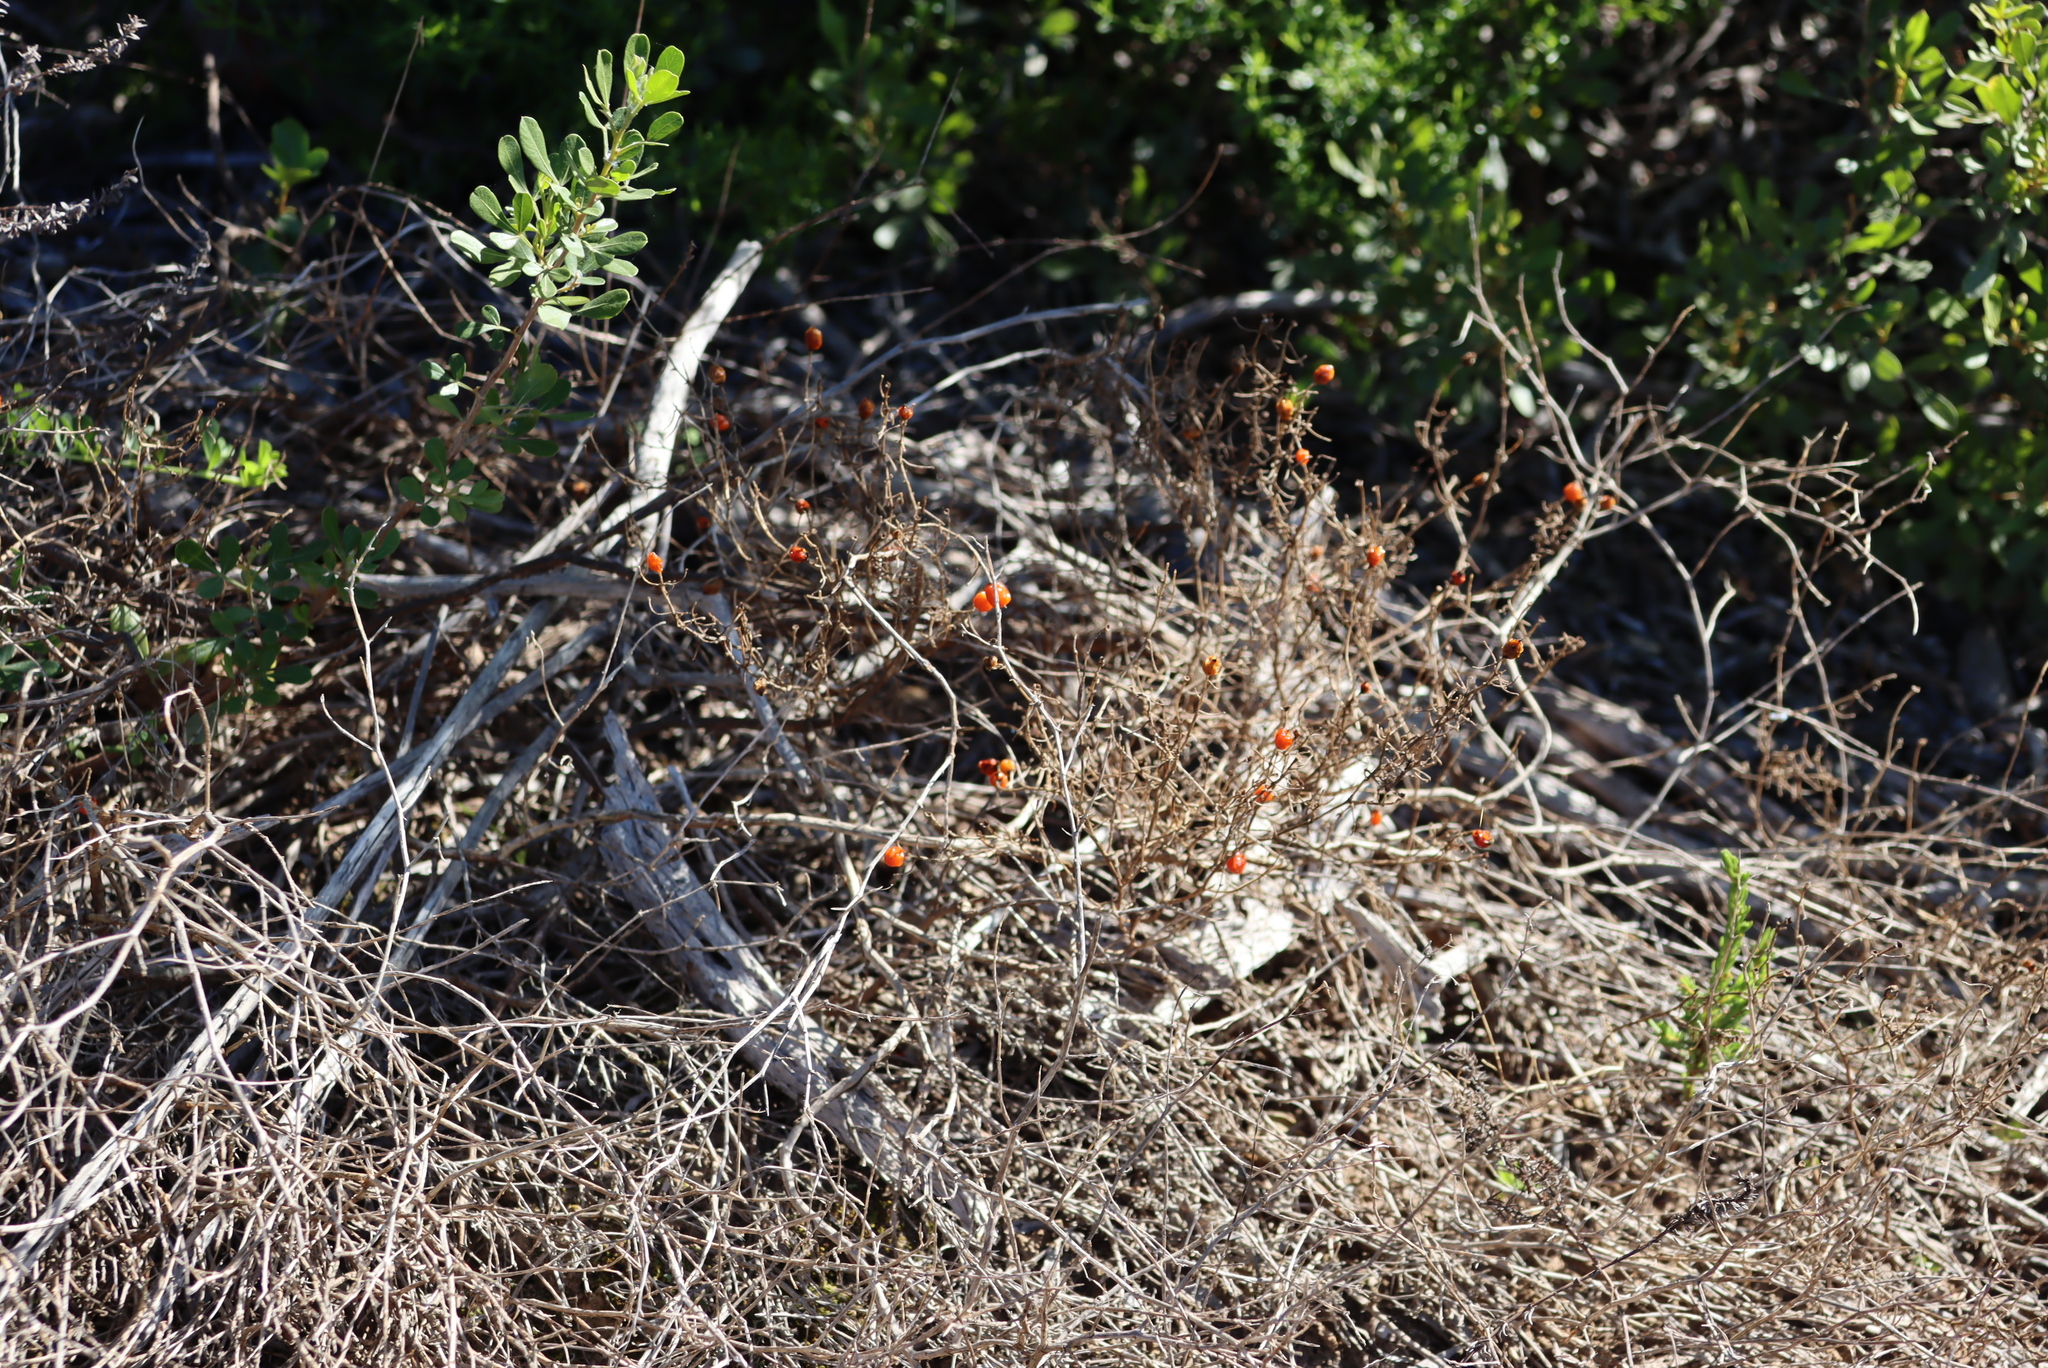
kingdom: Plantae
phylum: Tracheophyta
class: Magnoliopsida
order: Gentianales
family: Gentianaceae
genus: Chironia
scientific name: Chironia baccifera
